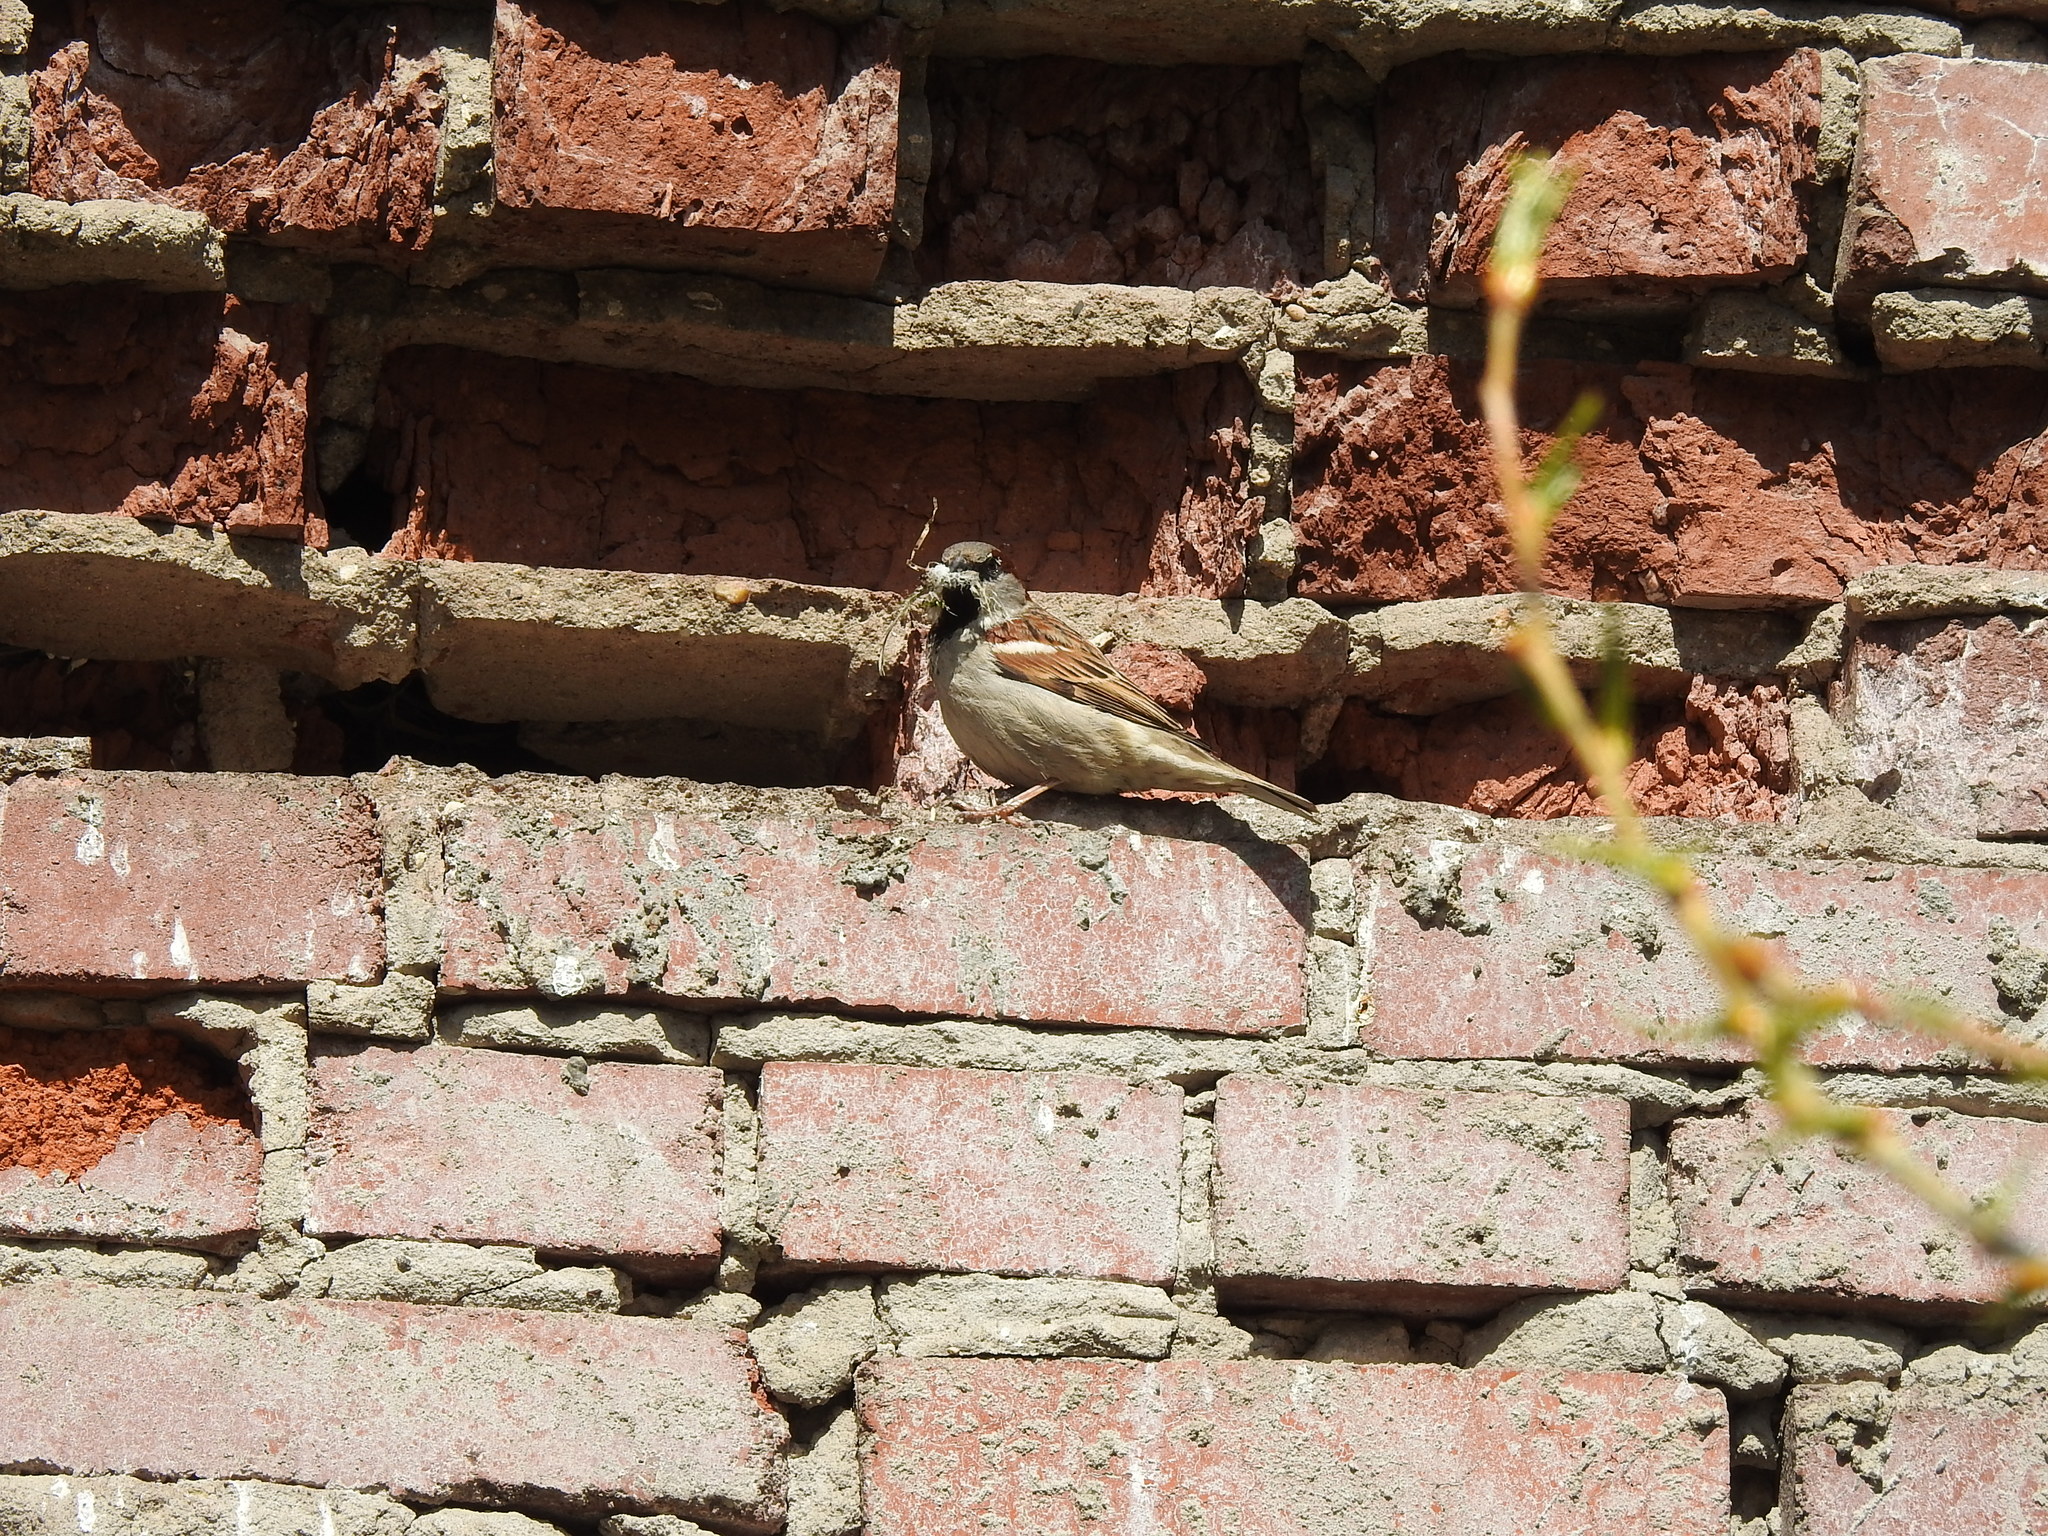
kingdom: Animalia
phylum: Chordata
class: Aves
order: Passeriformes
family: Passeridae
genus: Passer
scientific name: Passer domesticus
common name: House sparrow
